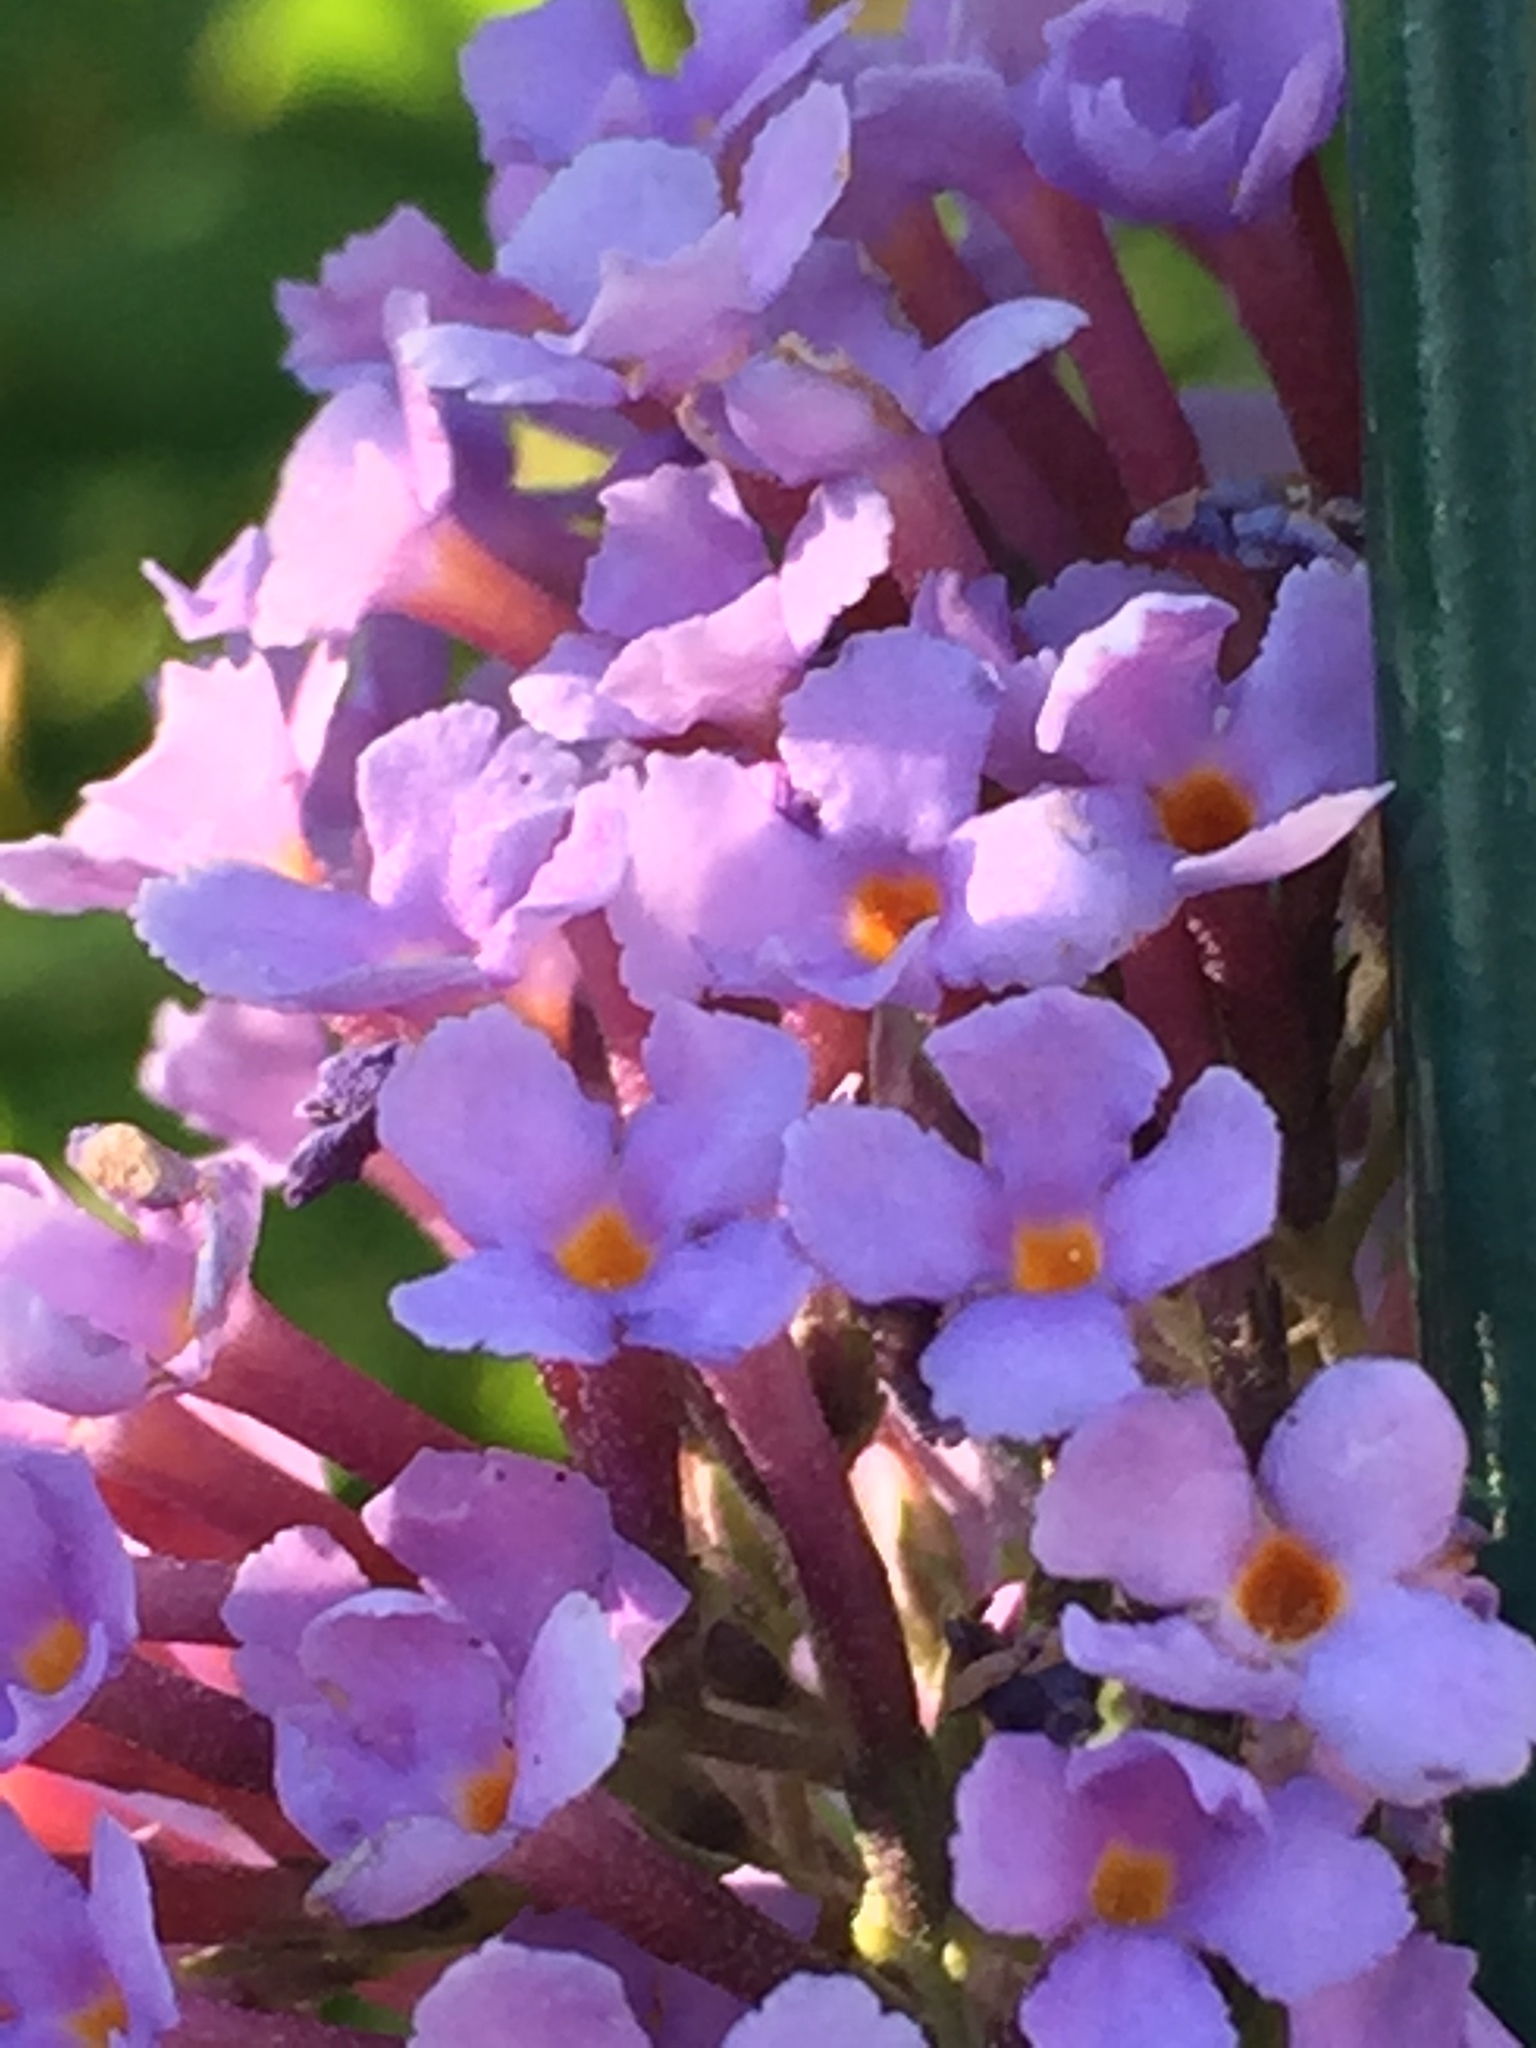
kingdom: Plantae
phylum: Tracheophyta
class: Magnoliopsida
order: Lamiales
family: Scrophulariaceae
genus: Buddleja
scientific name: Buddleja davidii
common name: Butterfly-bush
